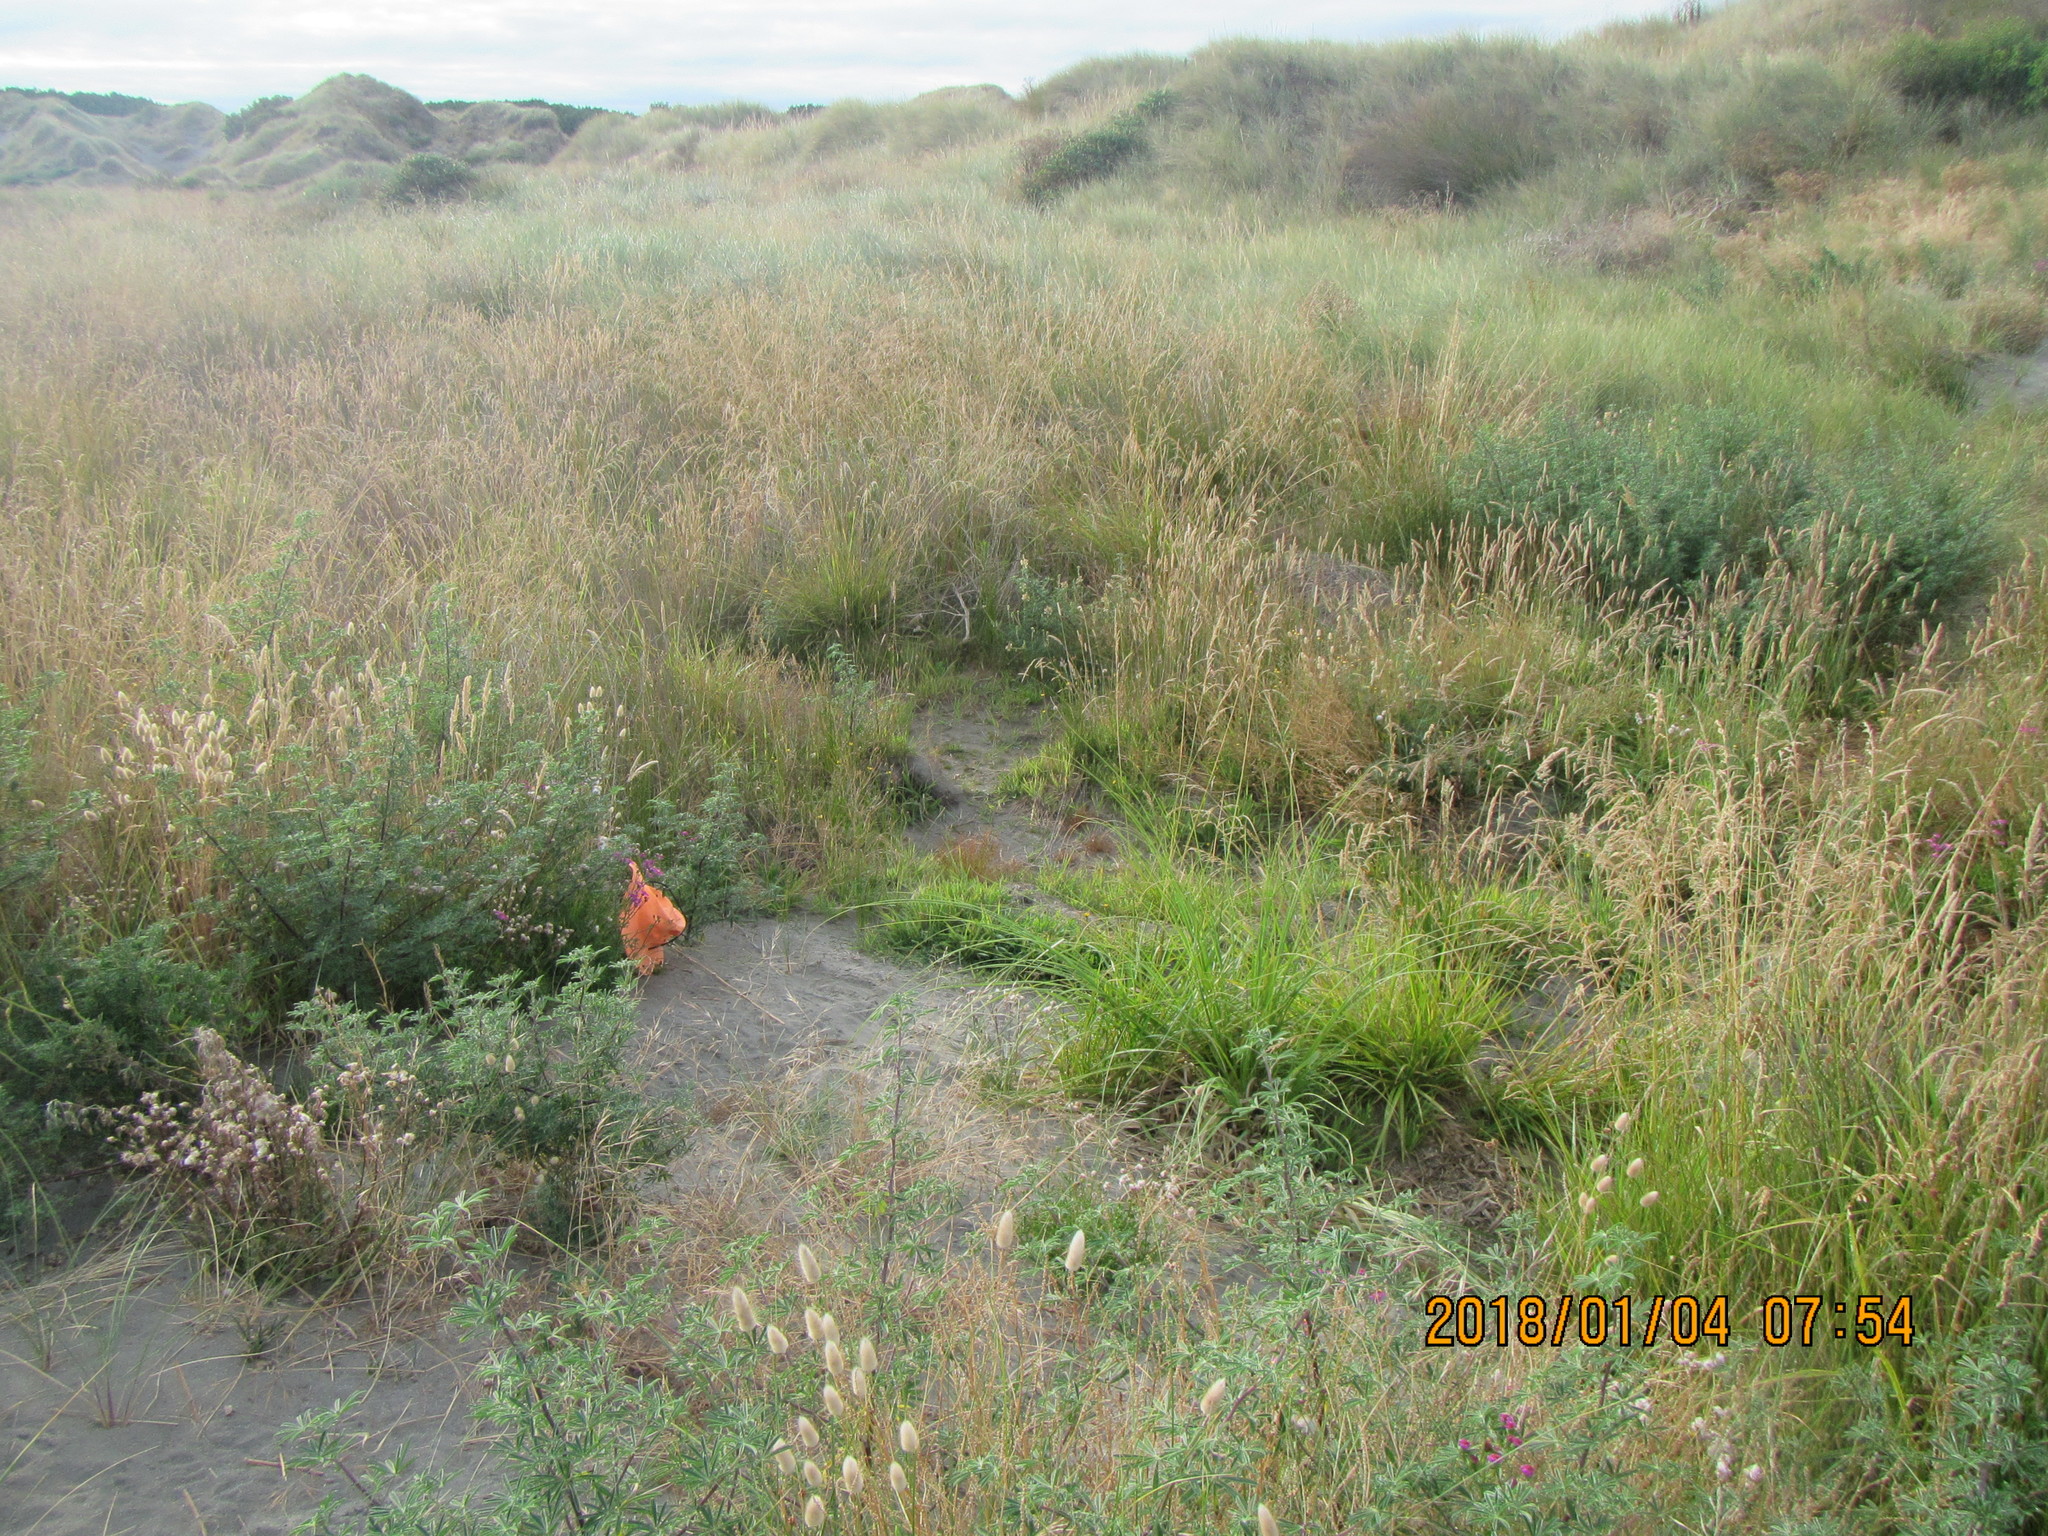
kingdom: Plantae
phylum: Tracheophyta
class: Magnoliopsida
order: Asterales
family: Asteraceae
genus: Senecio
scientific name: Senecio elegans
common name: Purple groundsel
